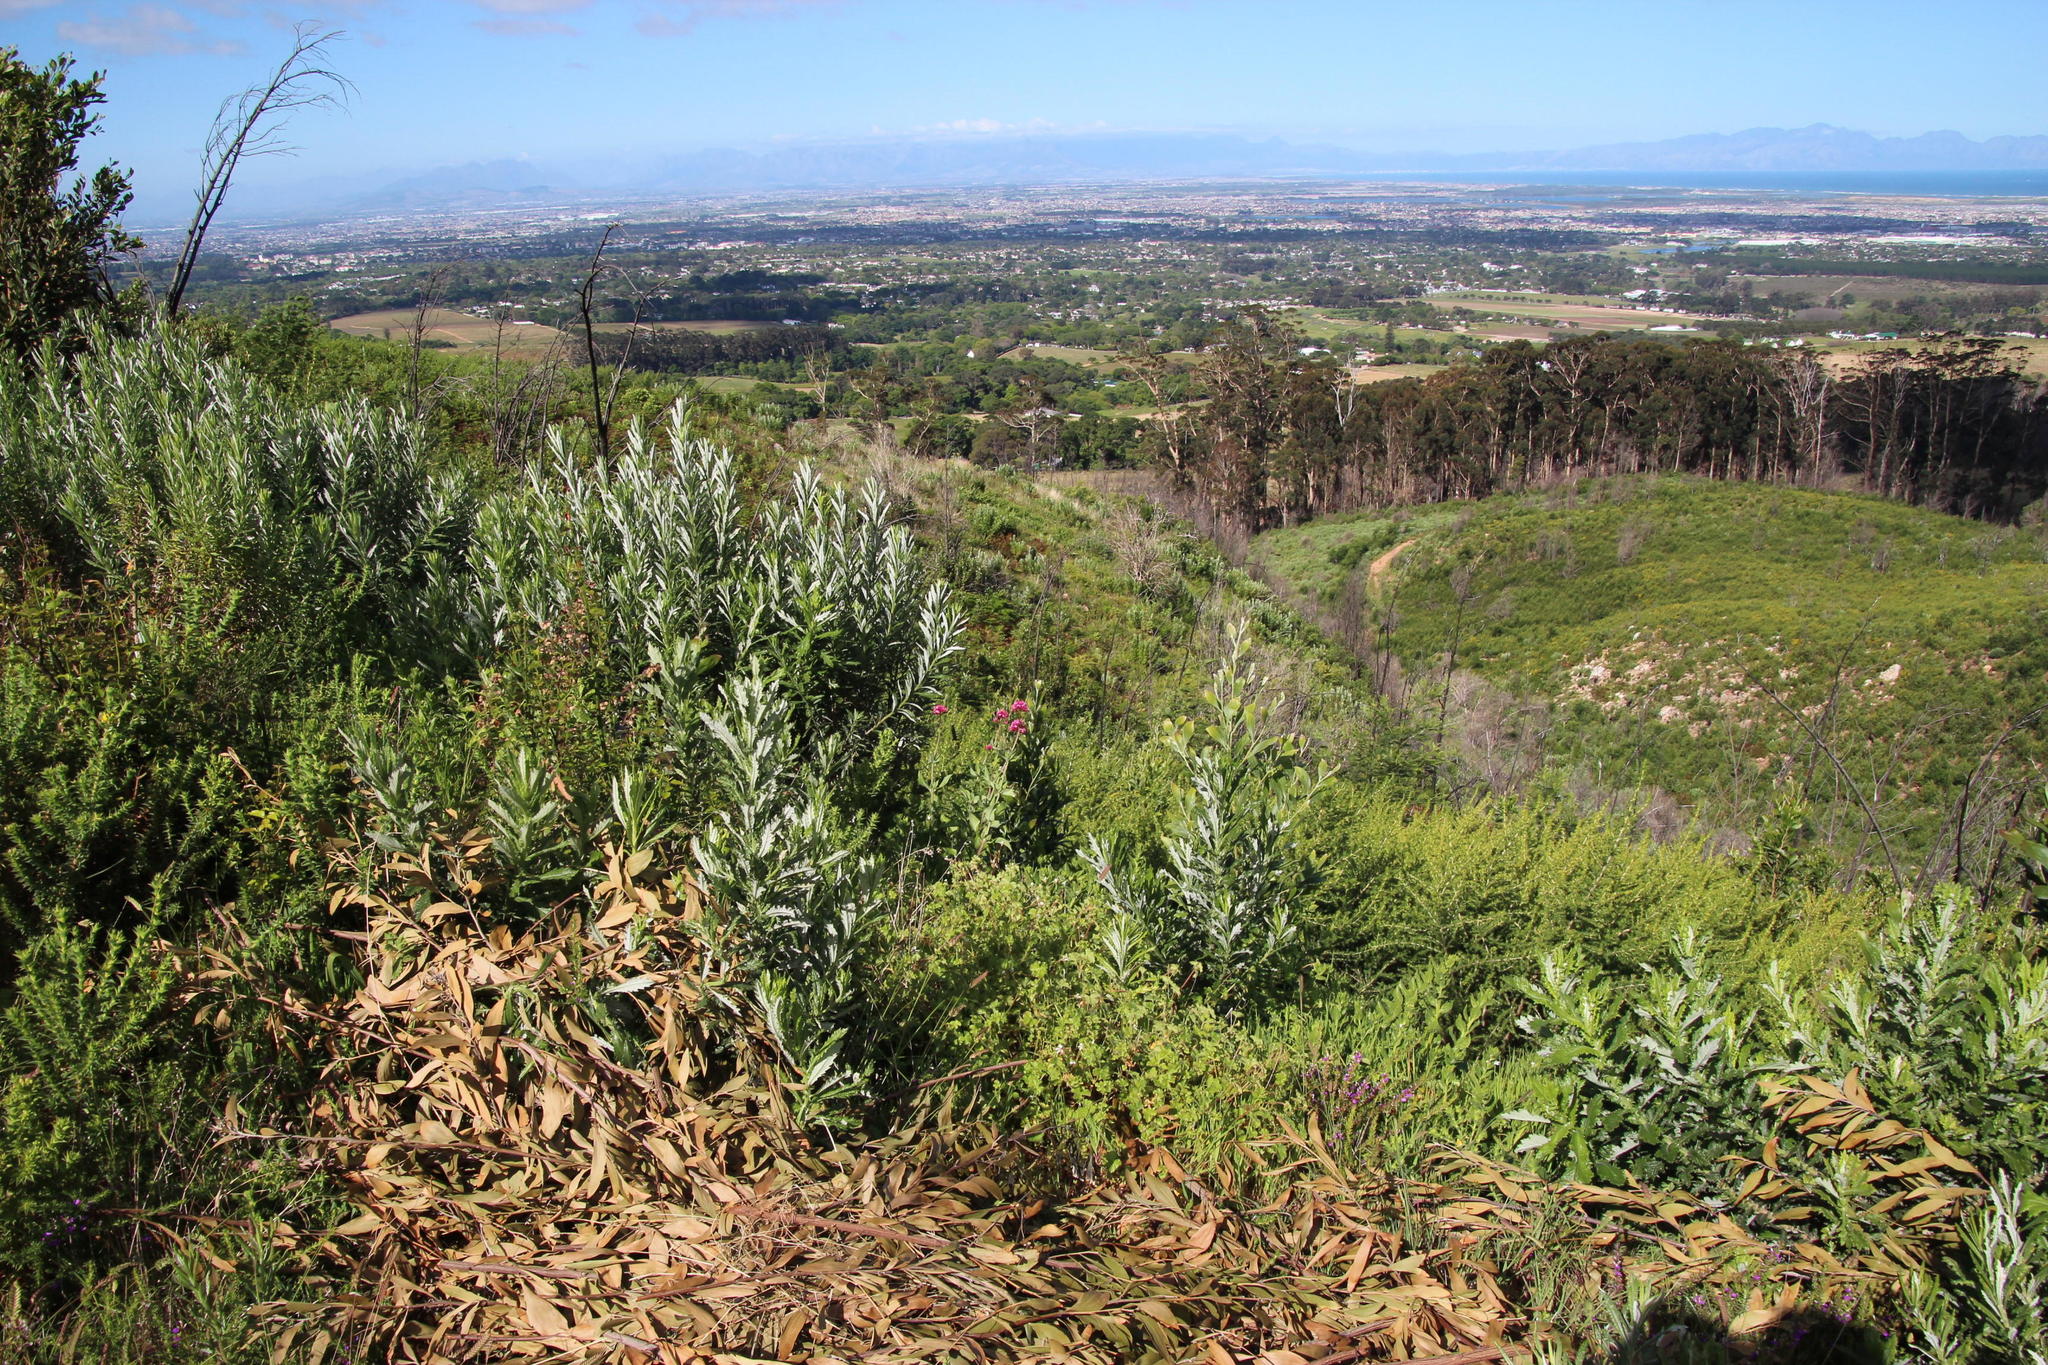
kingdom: Plantae
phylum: Tracheophyta
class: Magnoliopsida
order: Dipsacales
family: Caprifoliaceae
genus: Centranthus
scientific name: Centranthus ruber
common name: Red valerian
